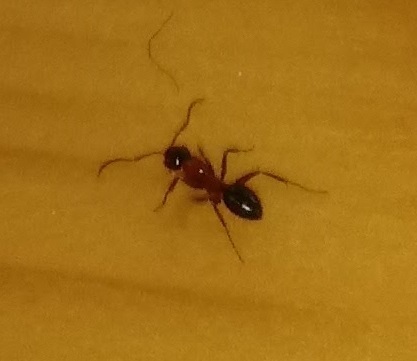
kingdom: Animalia
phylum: Arthropoda
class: Insecta
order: Hymenoptera
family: Formicidae
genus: Camponotus
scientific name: Camponotus nearcticus
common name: Smaller carpenter ant
